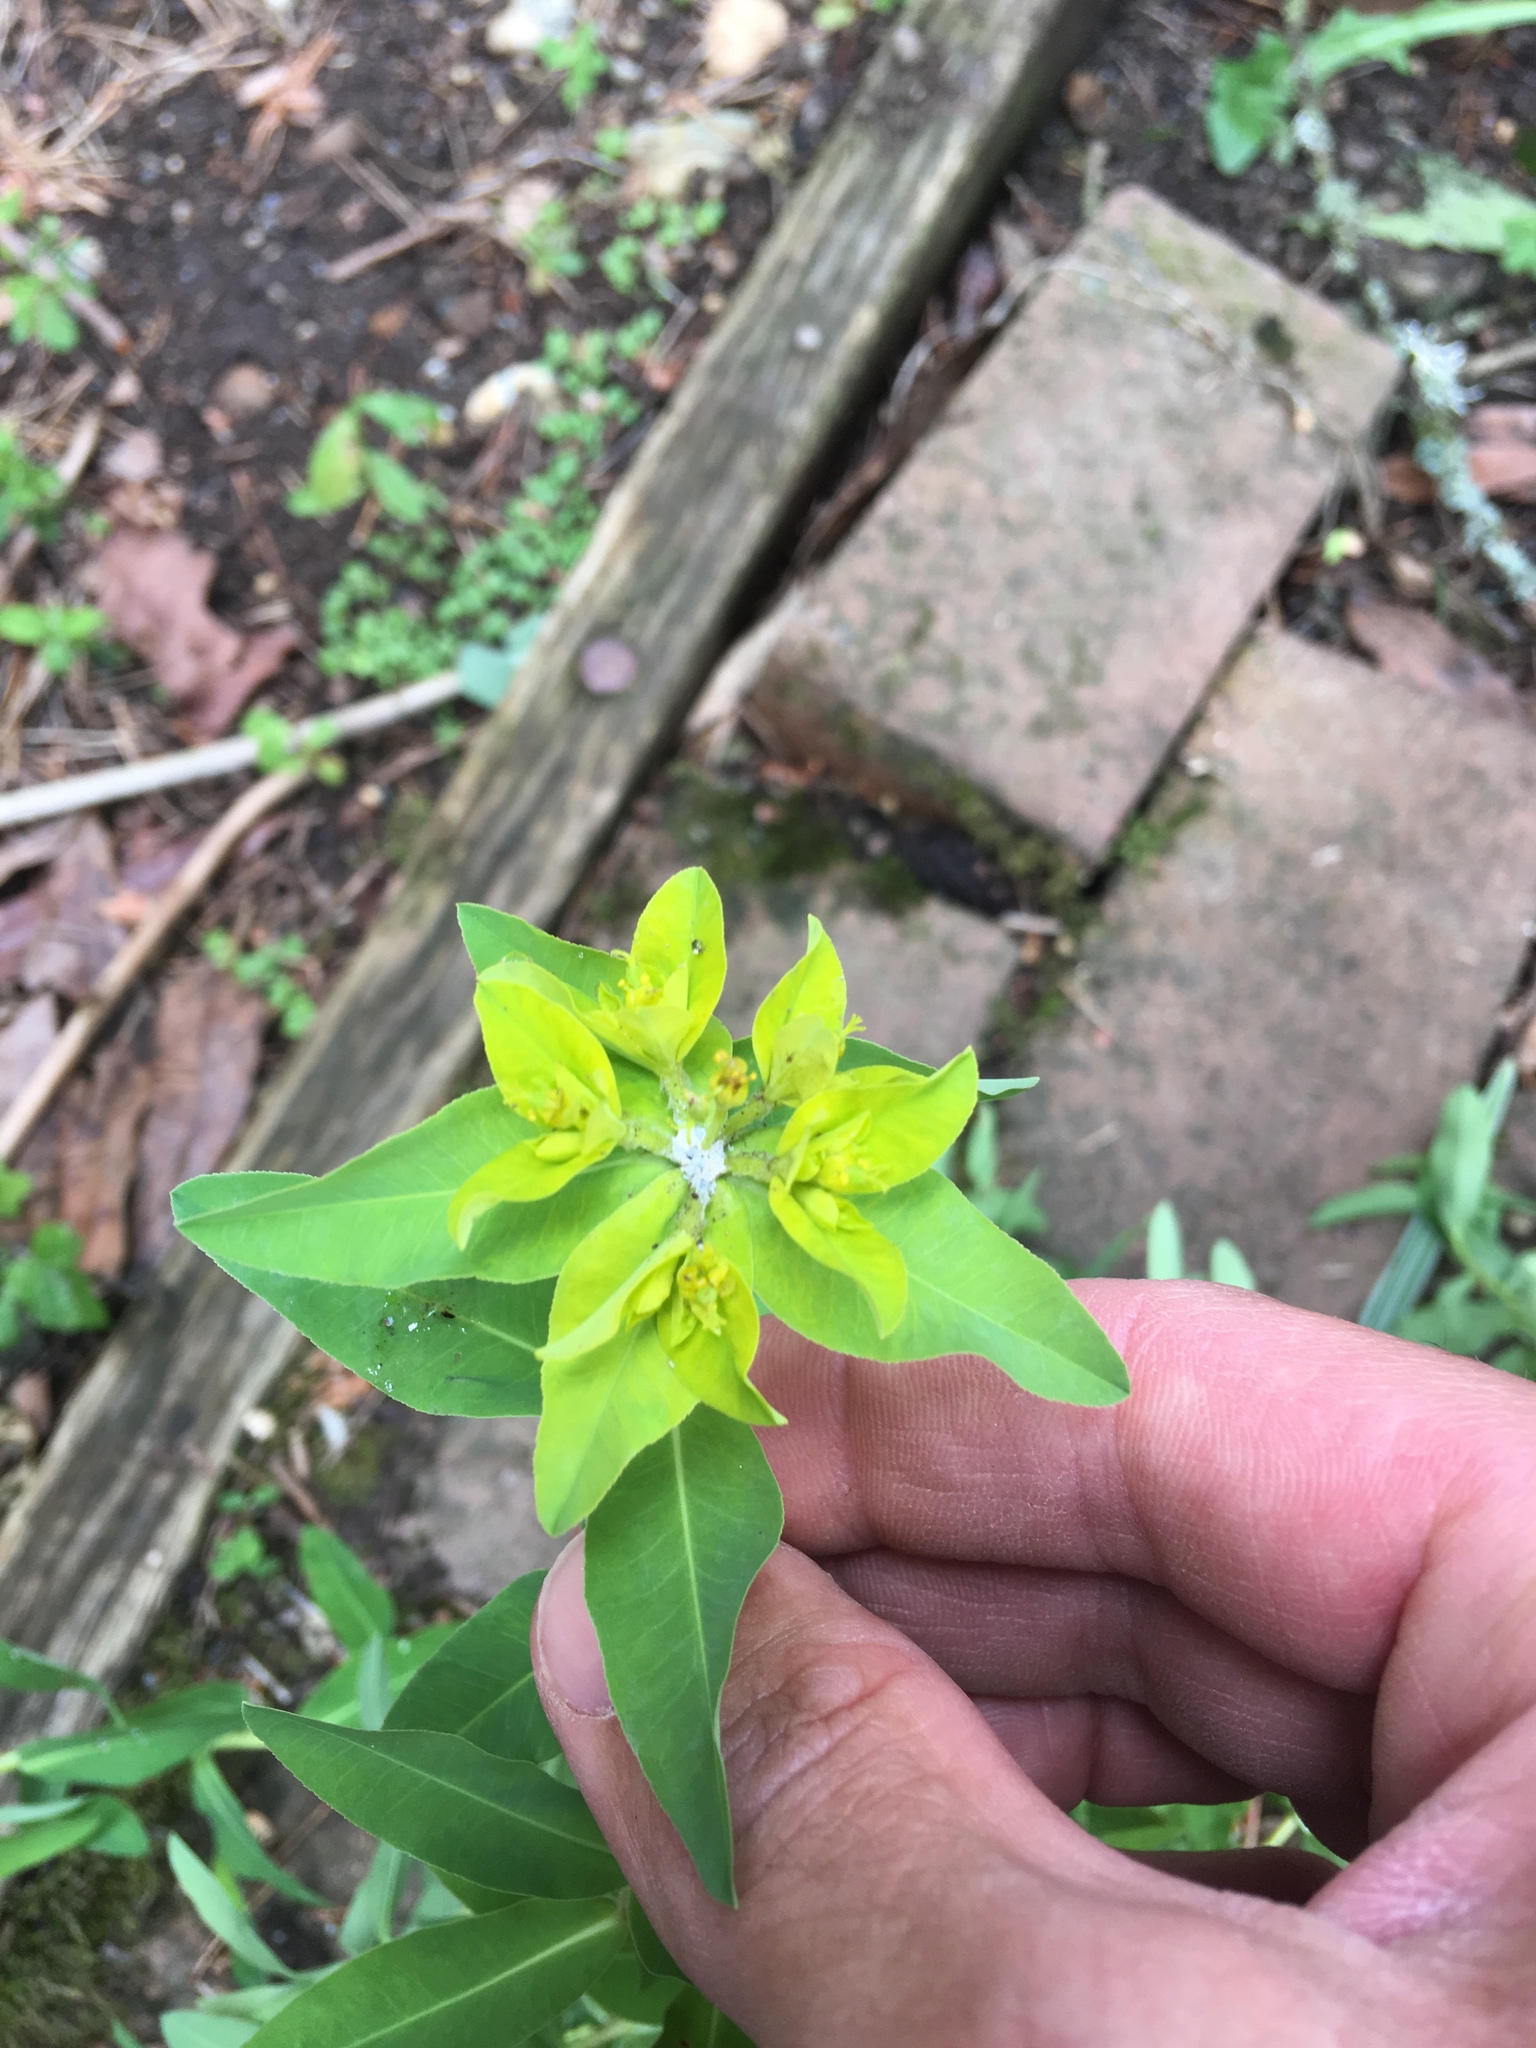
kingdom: Plantae
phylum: Tracheophyta
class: Magnoliopsida
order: Malpighiales
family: Euphorbiaceae
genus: Euphorbia
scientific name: Euphorbia oblongata
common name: Balkan spurge
